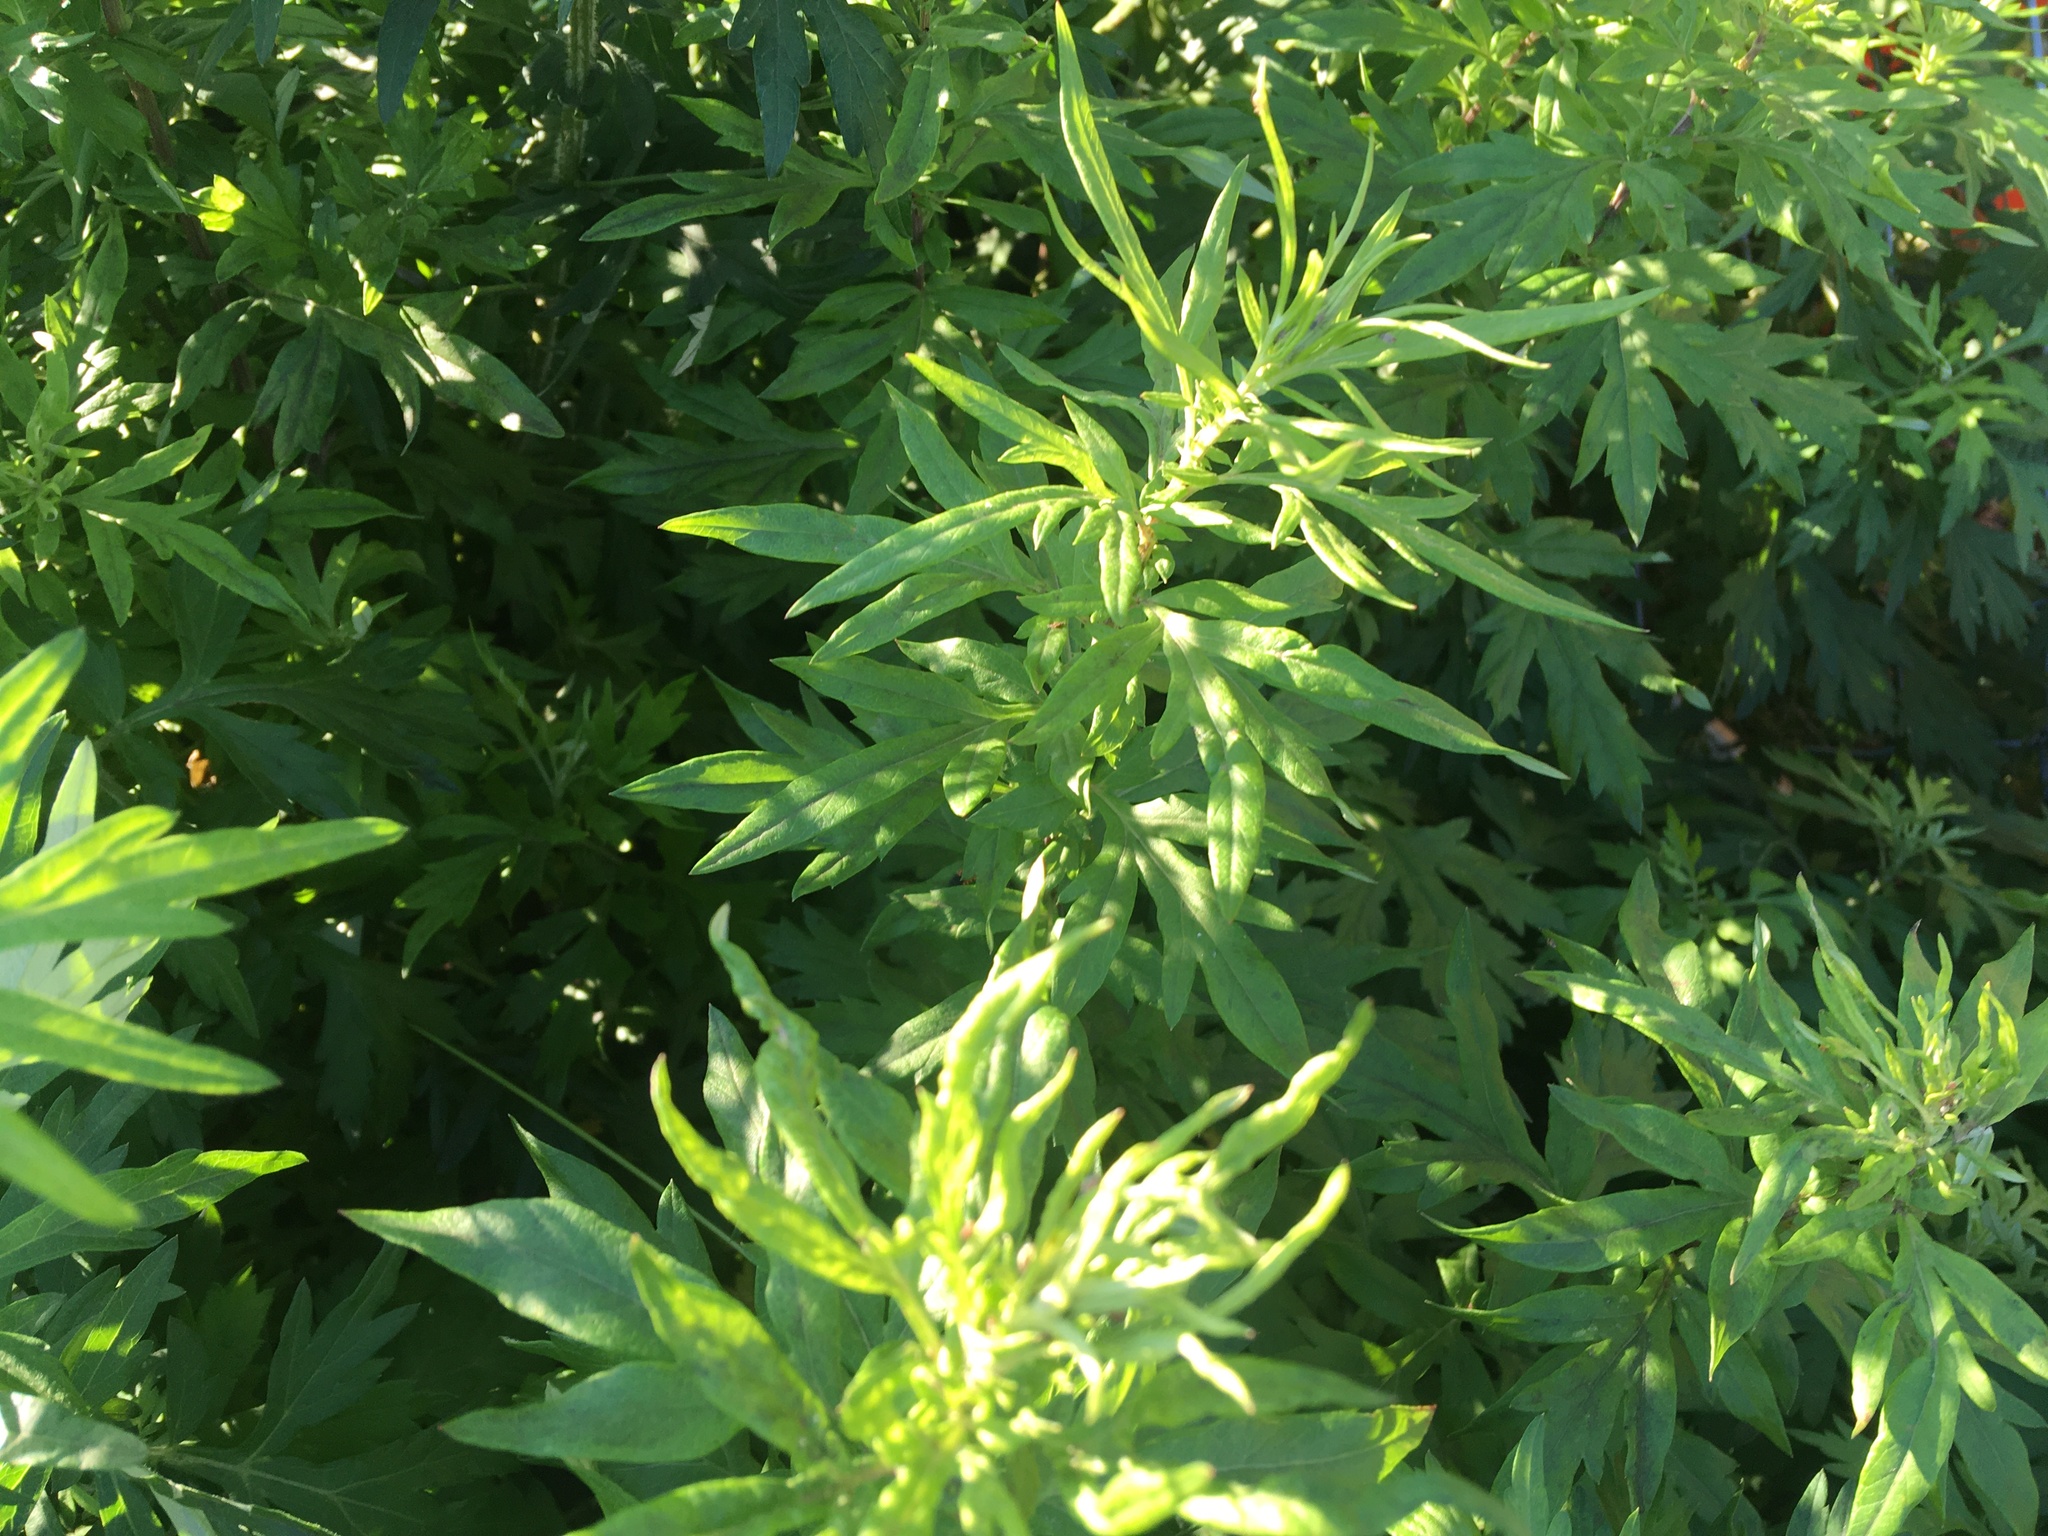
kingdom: Plantae
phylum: Tracheophyta
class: Magnoliopsida
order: Asterales
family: Asteraceae
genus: Artemisia
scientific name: Artemisia vulgaris
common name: Mugwort
